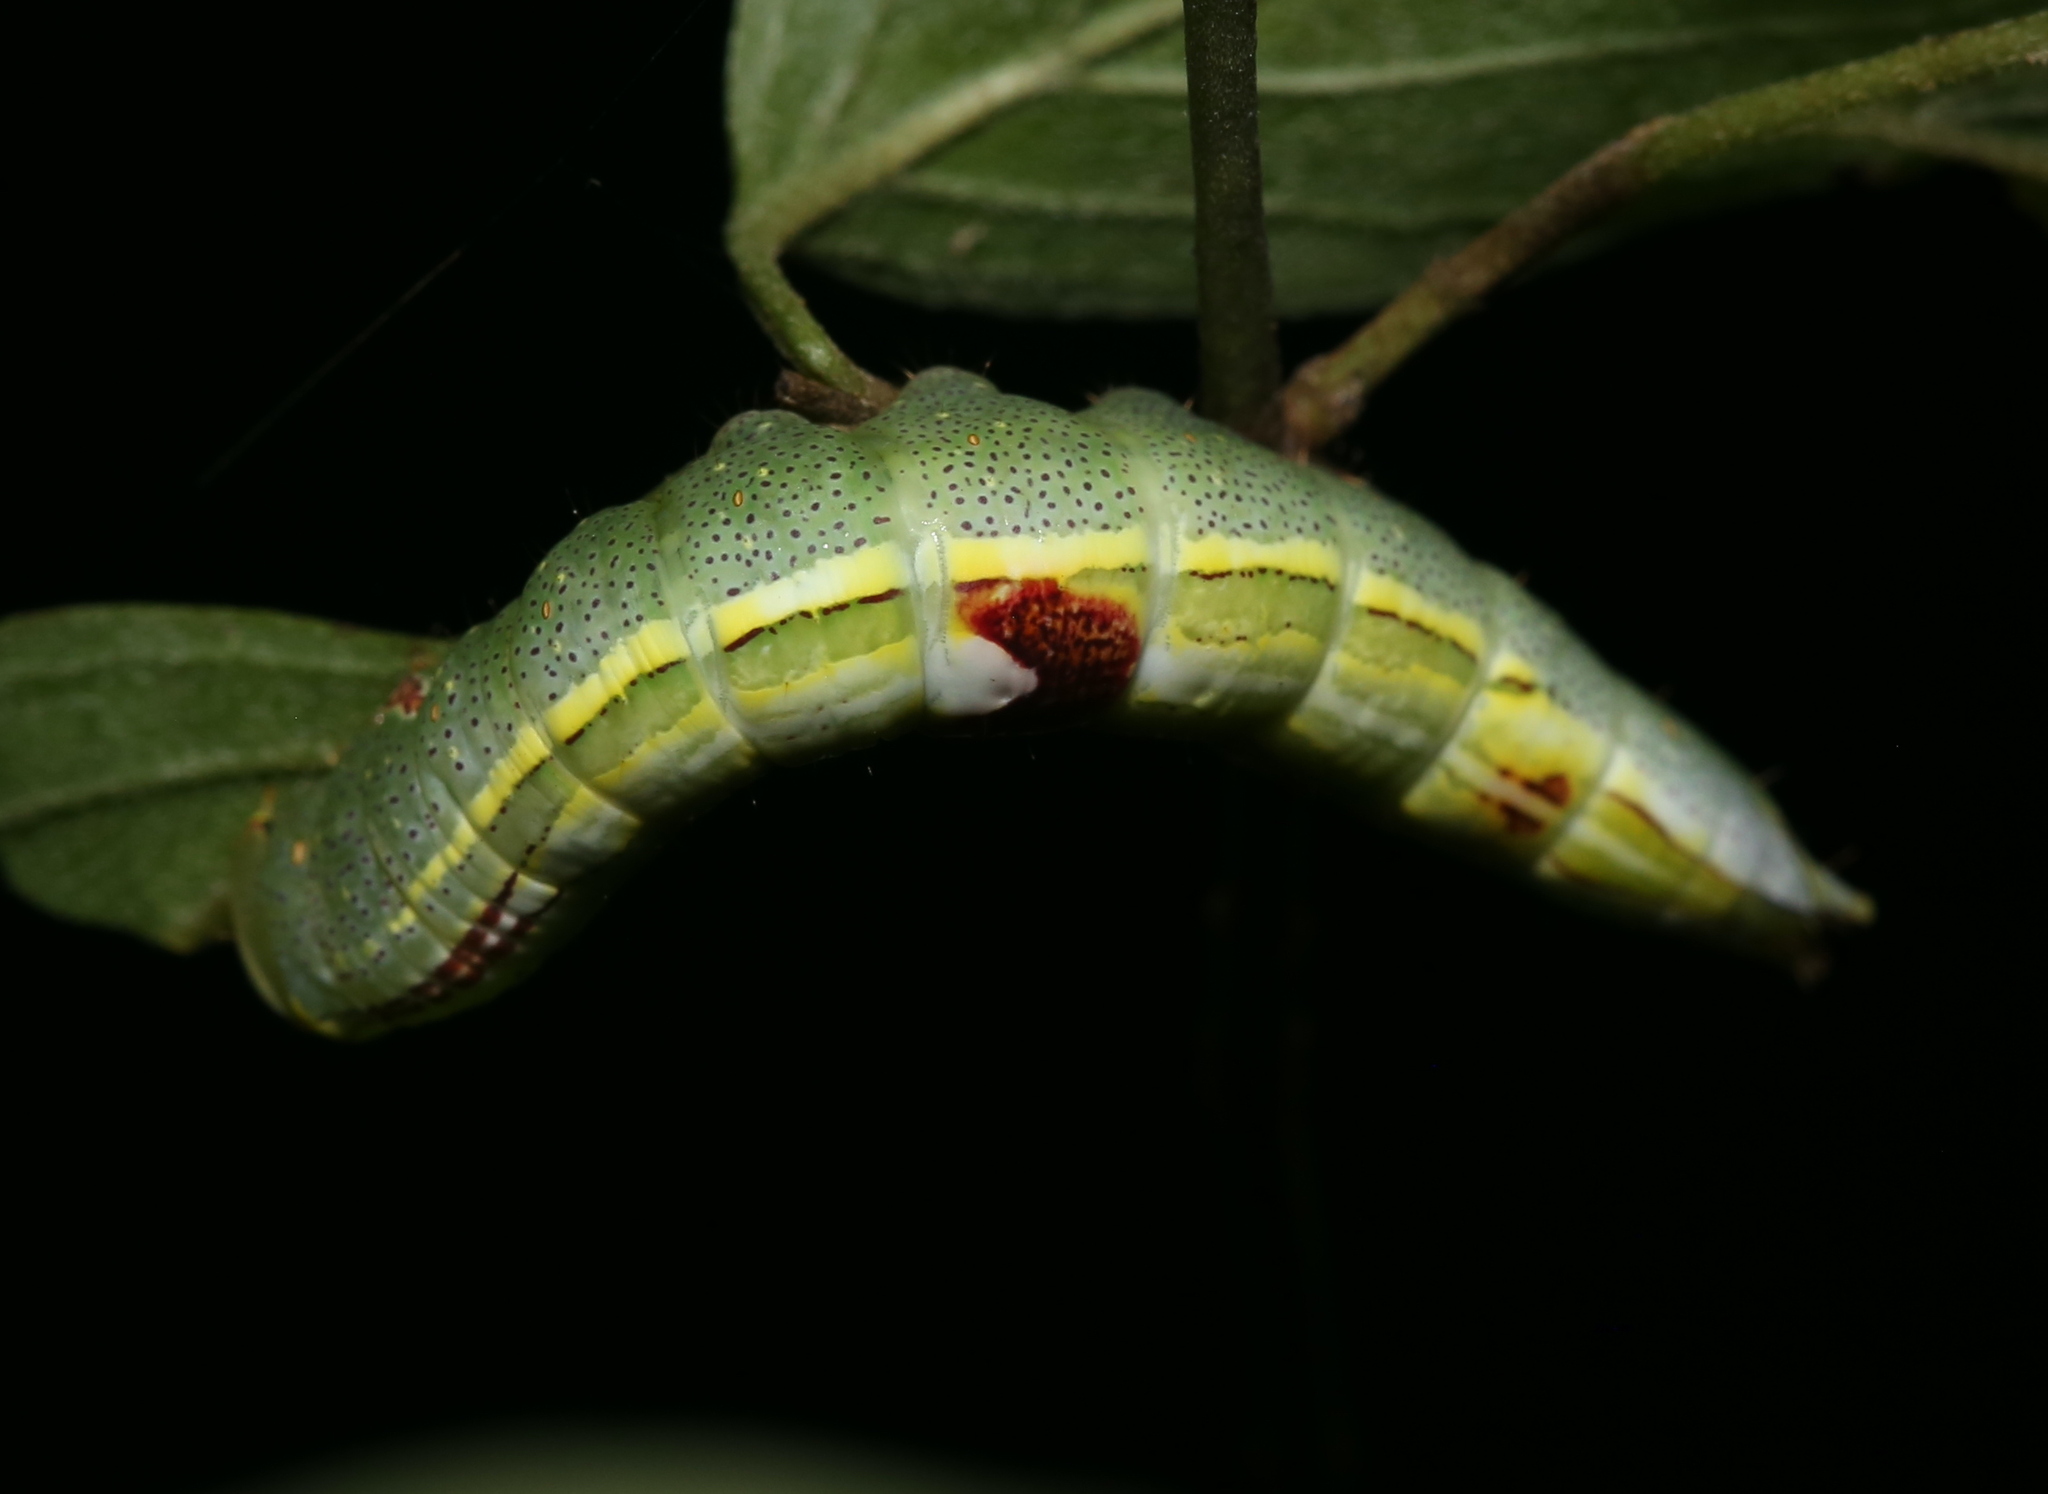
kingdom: Animalia
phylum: Arthropoda
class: Insecta
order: Lepidoptera
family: Notodontidae
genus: Disphragis
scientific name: Disphragis Cecrita guttivitta
